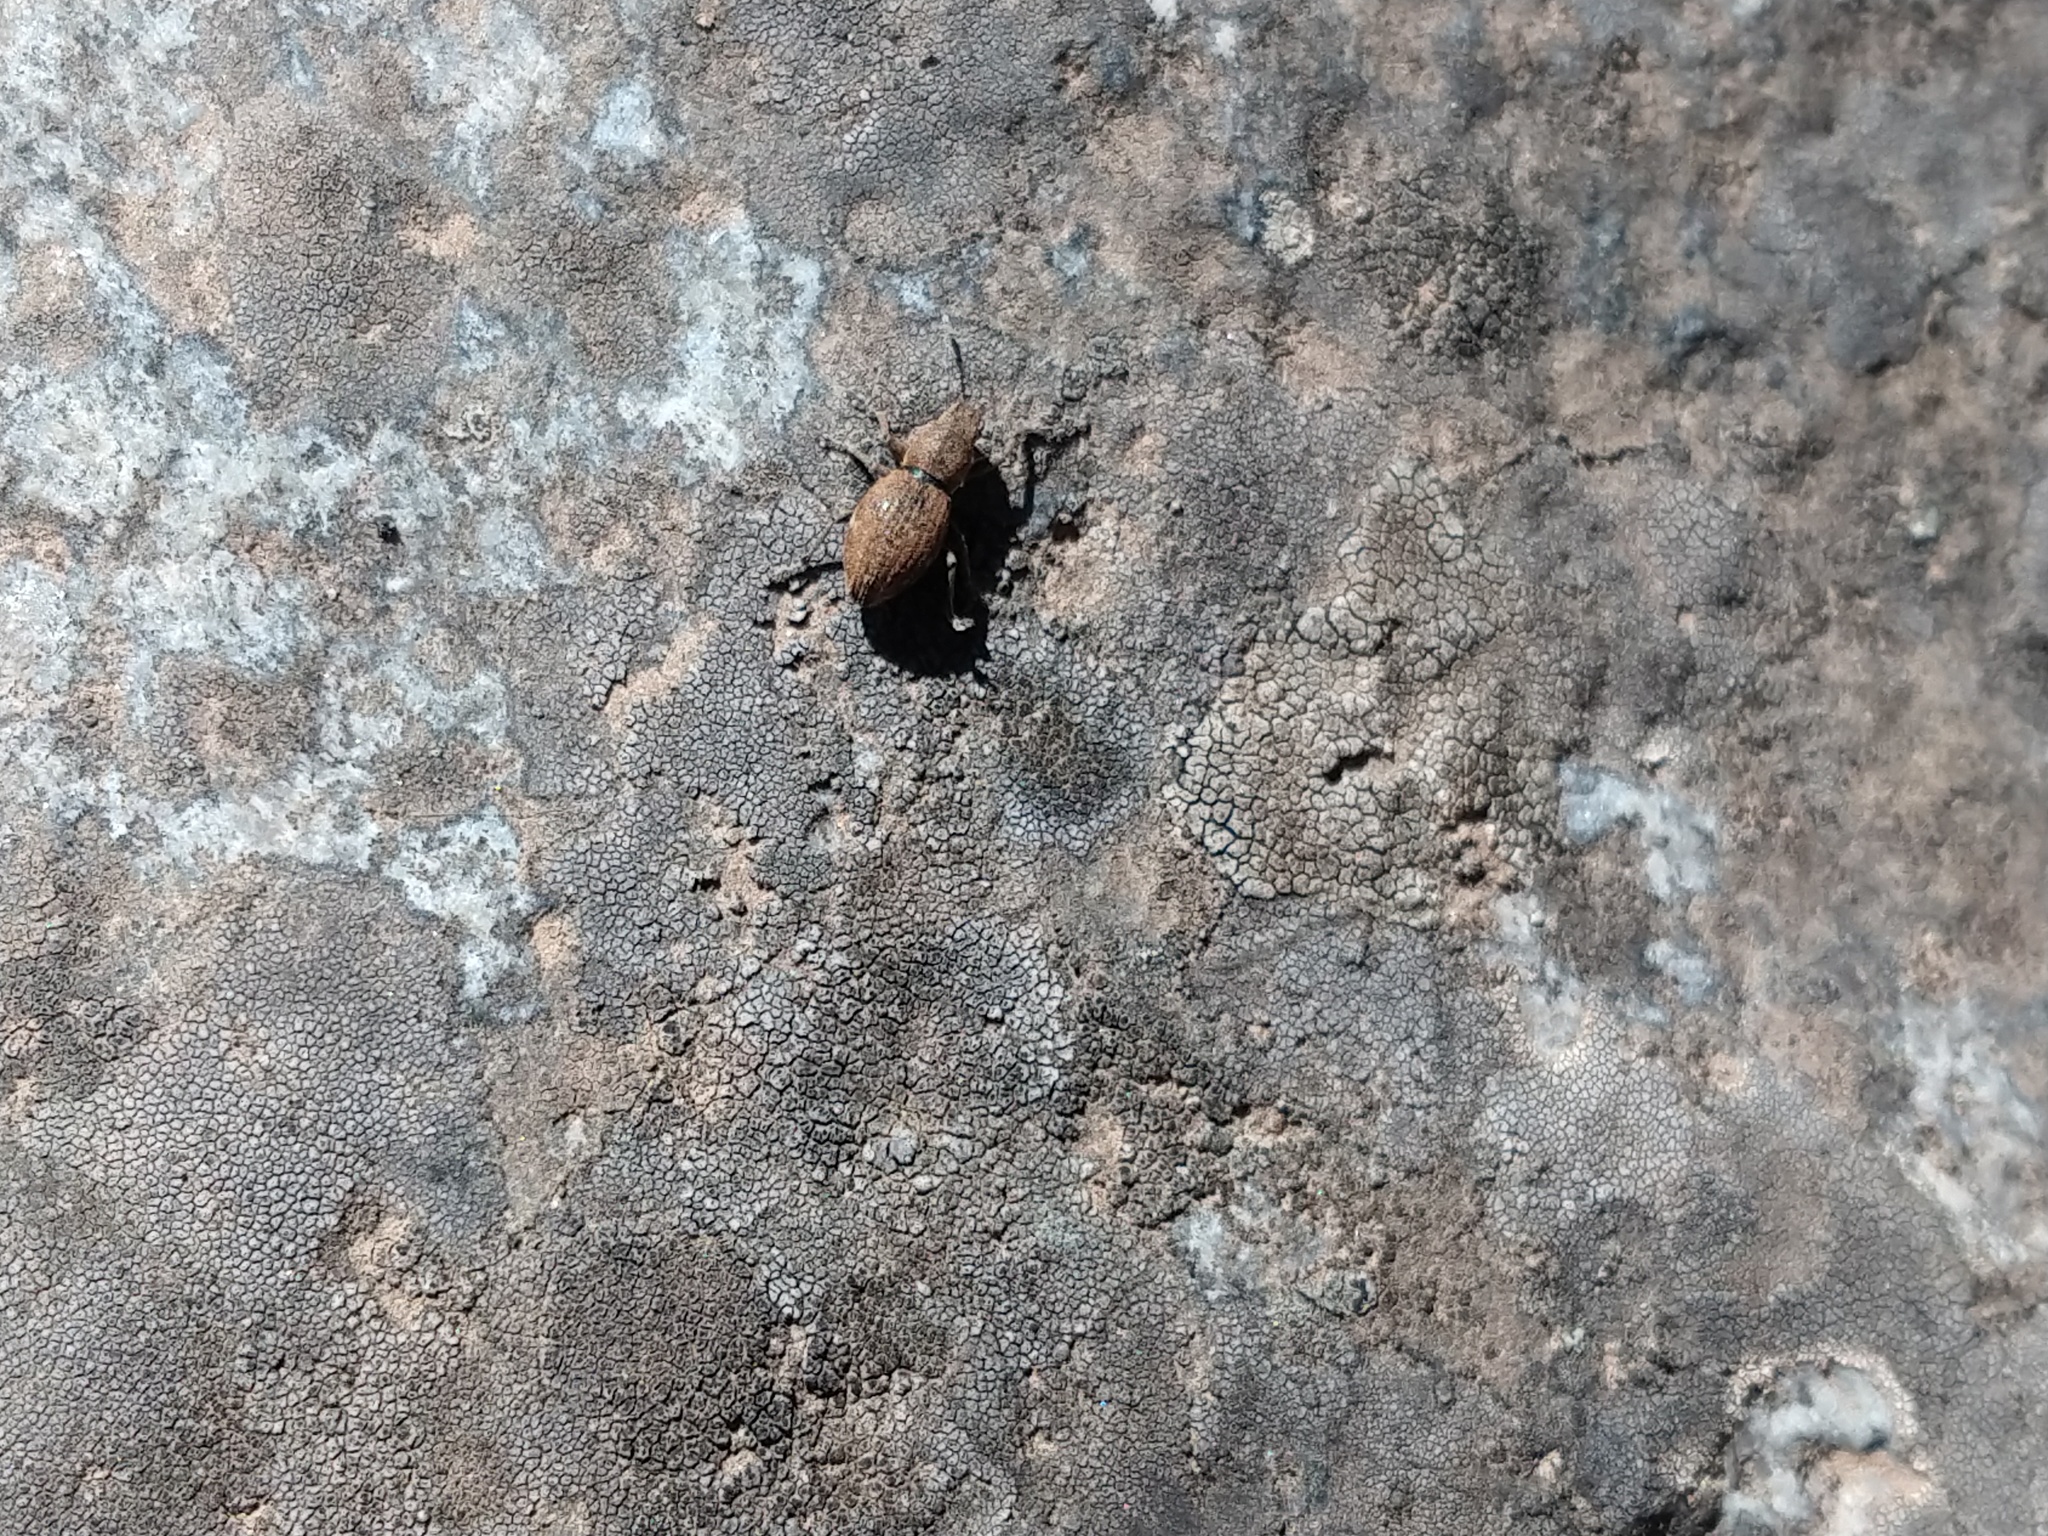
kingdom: Animalia
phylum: Arthropoda
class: Insecta
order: Coleoptera
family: Curculionidae
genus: Naupactus
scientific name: Naupactus cervinus
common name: Fuller rose beetle
